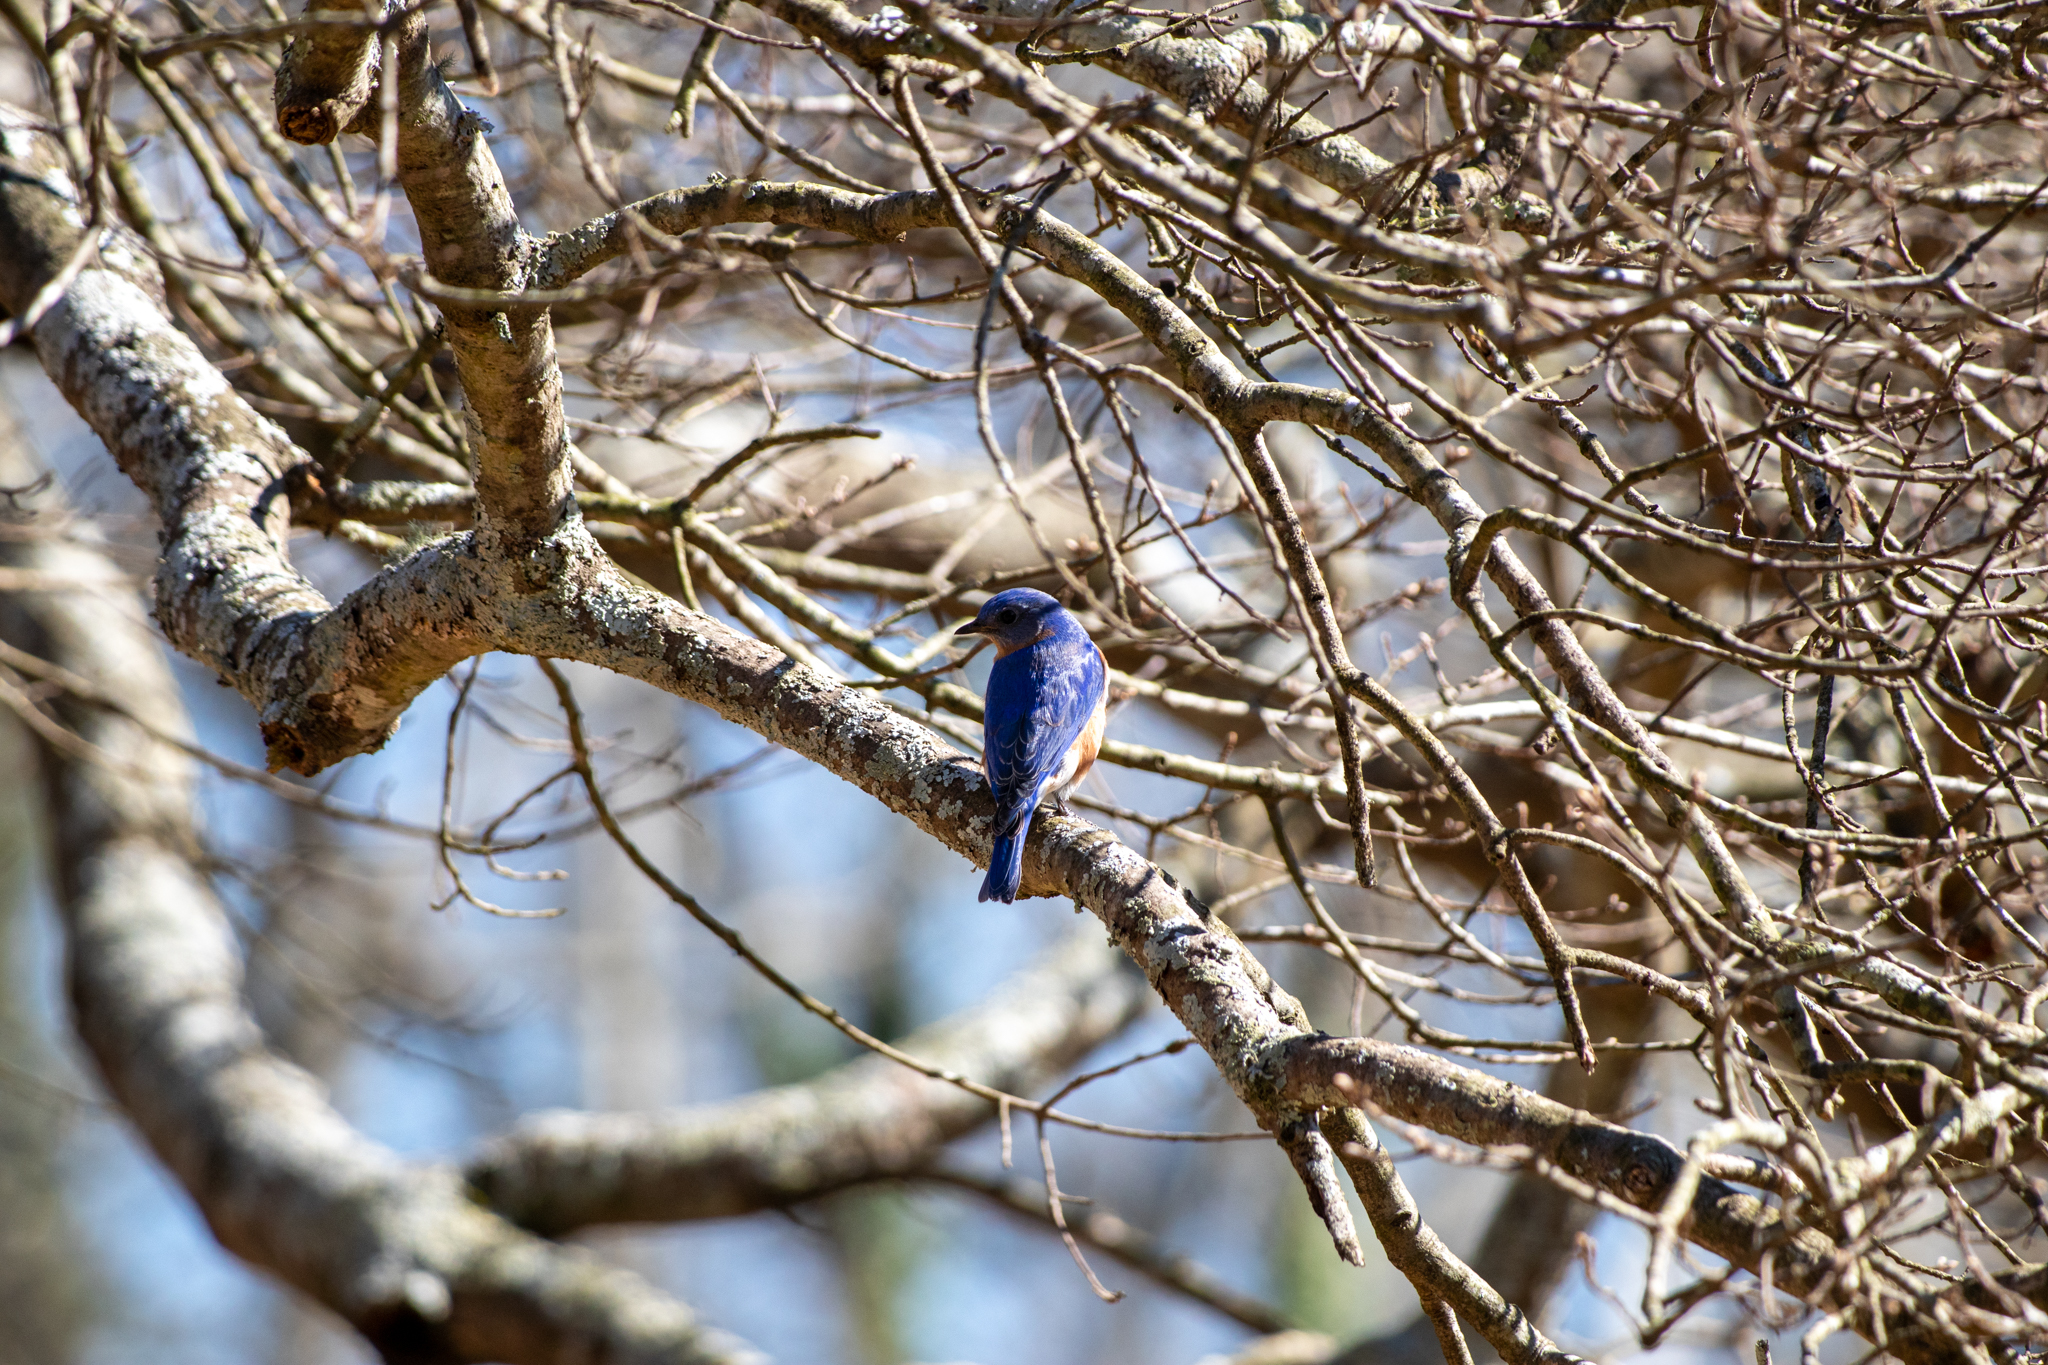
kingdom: Animalia
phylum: Chordata
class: Aves
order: Passeriformes
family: Turdidae
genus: Sialia
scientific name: Sialia sialis
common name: Eastern bluebird
